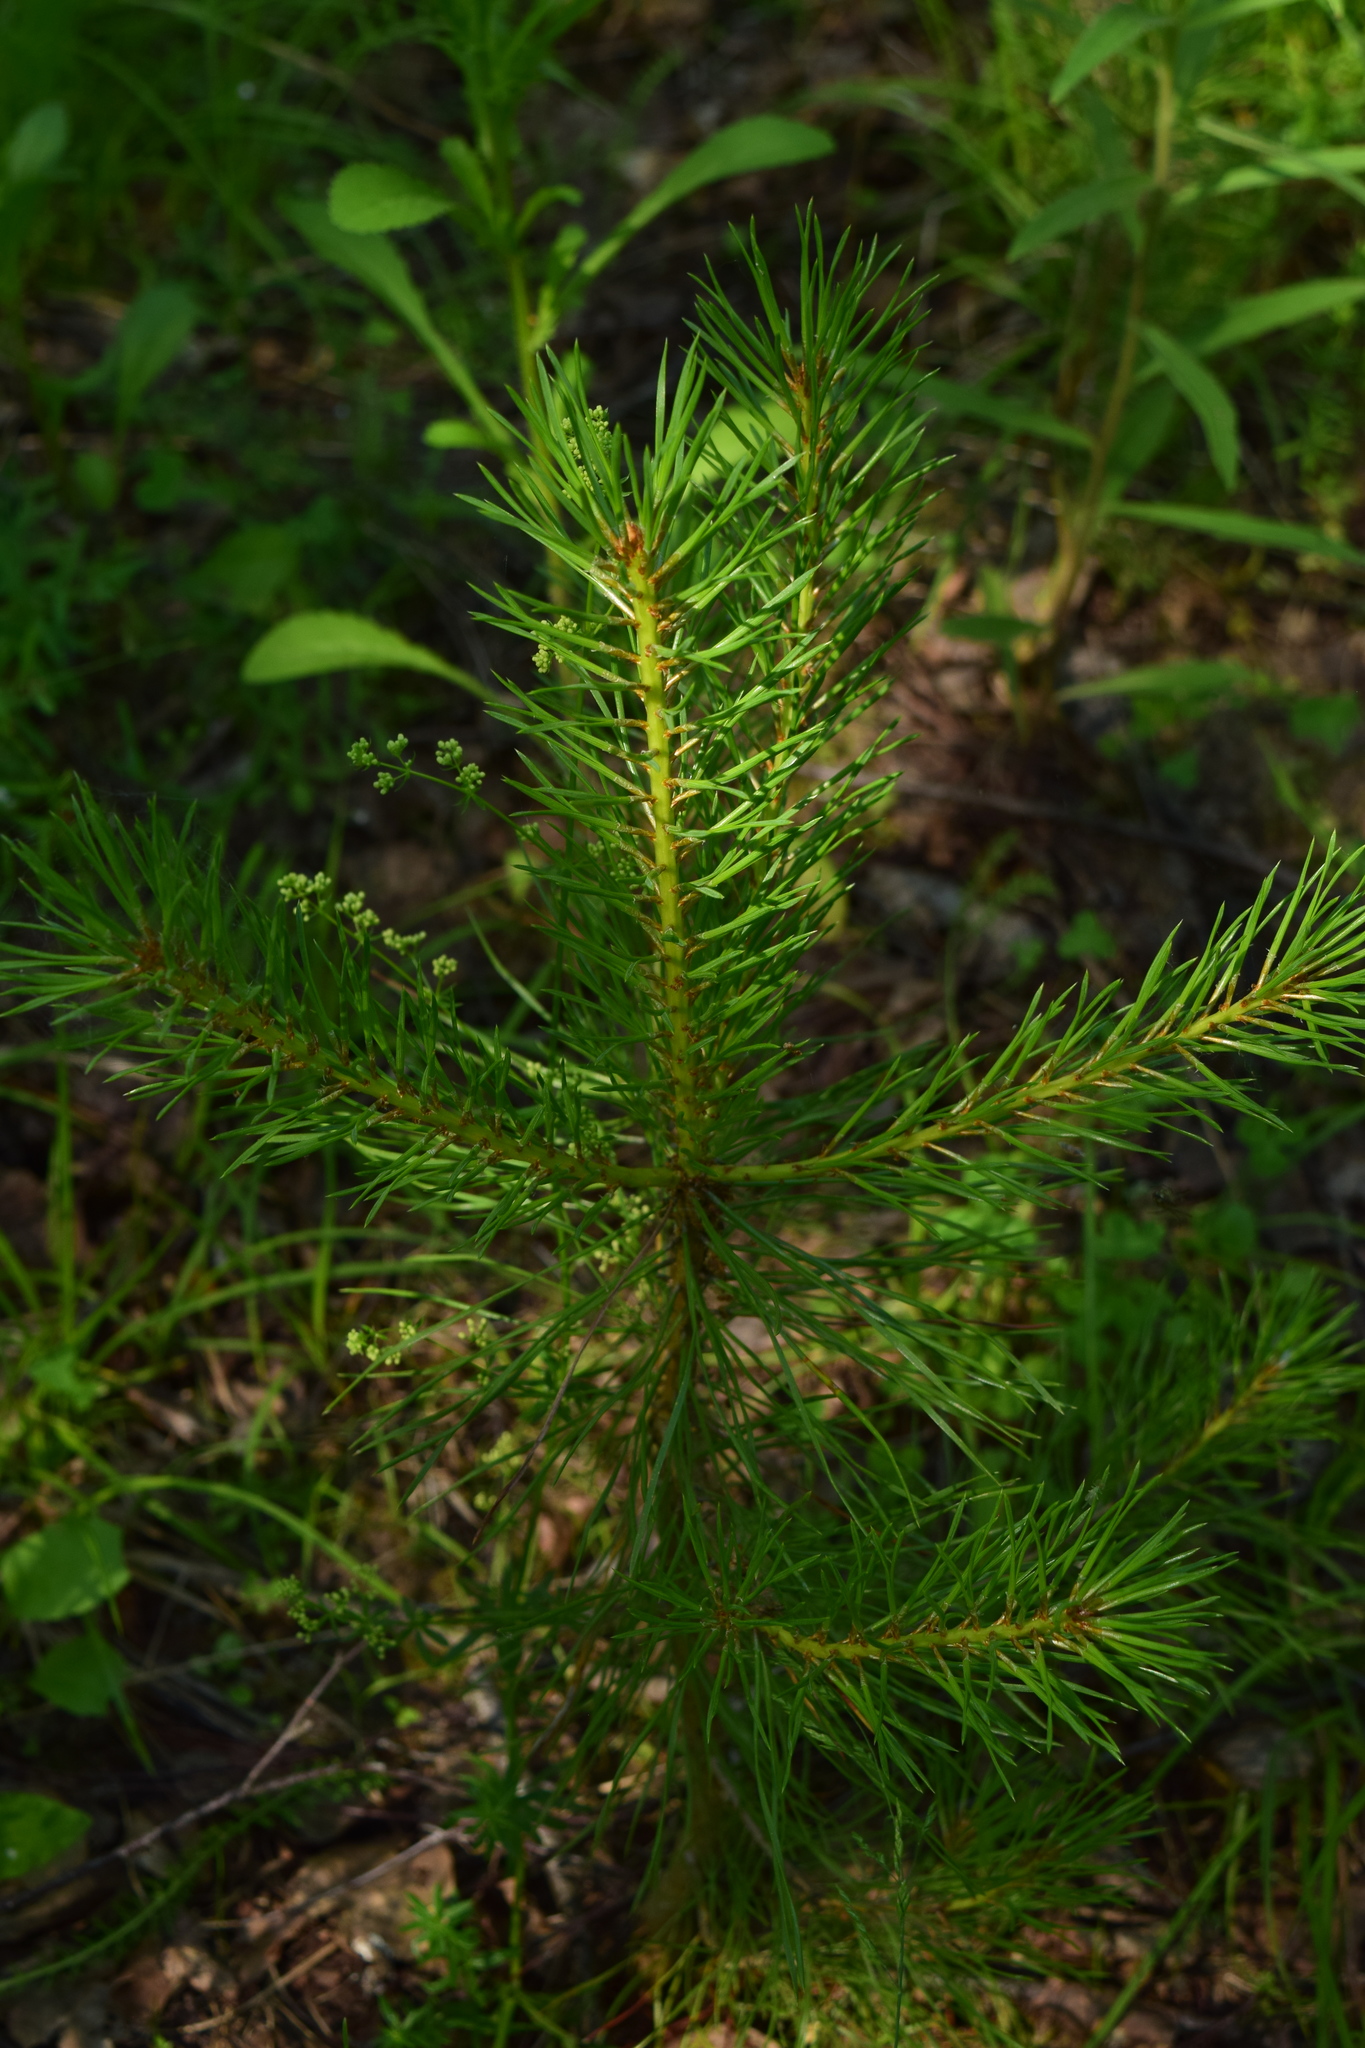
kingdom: Plantae
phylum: Tracheophyta
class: Pinopsida
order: Pinales
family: Pinaceae
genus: Pinus
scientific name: Pinus sylvestris
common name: Scots pine
